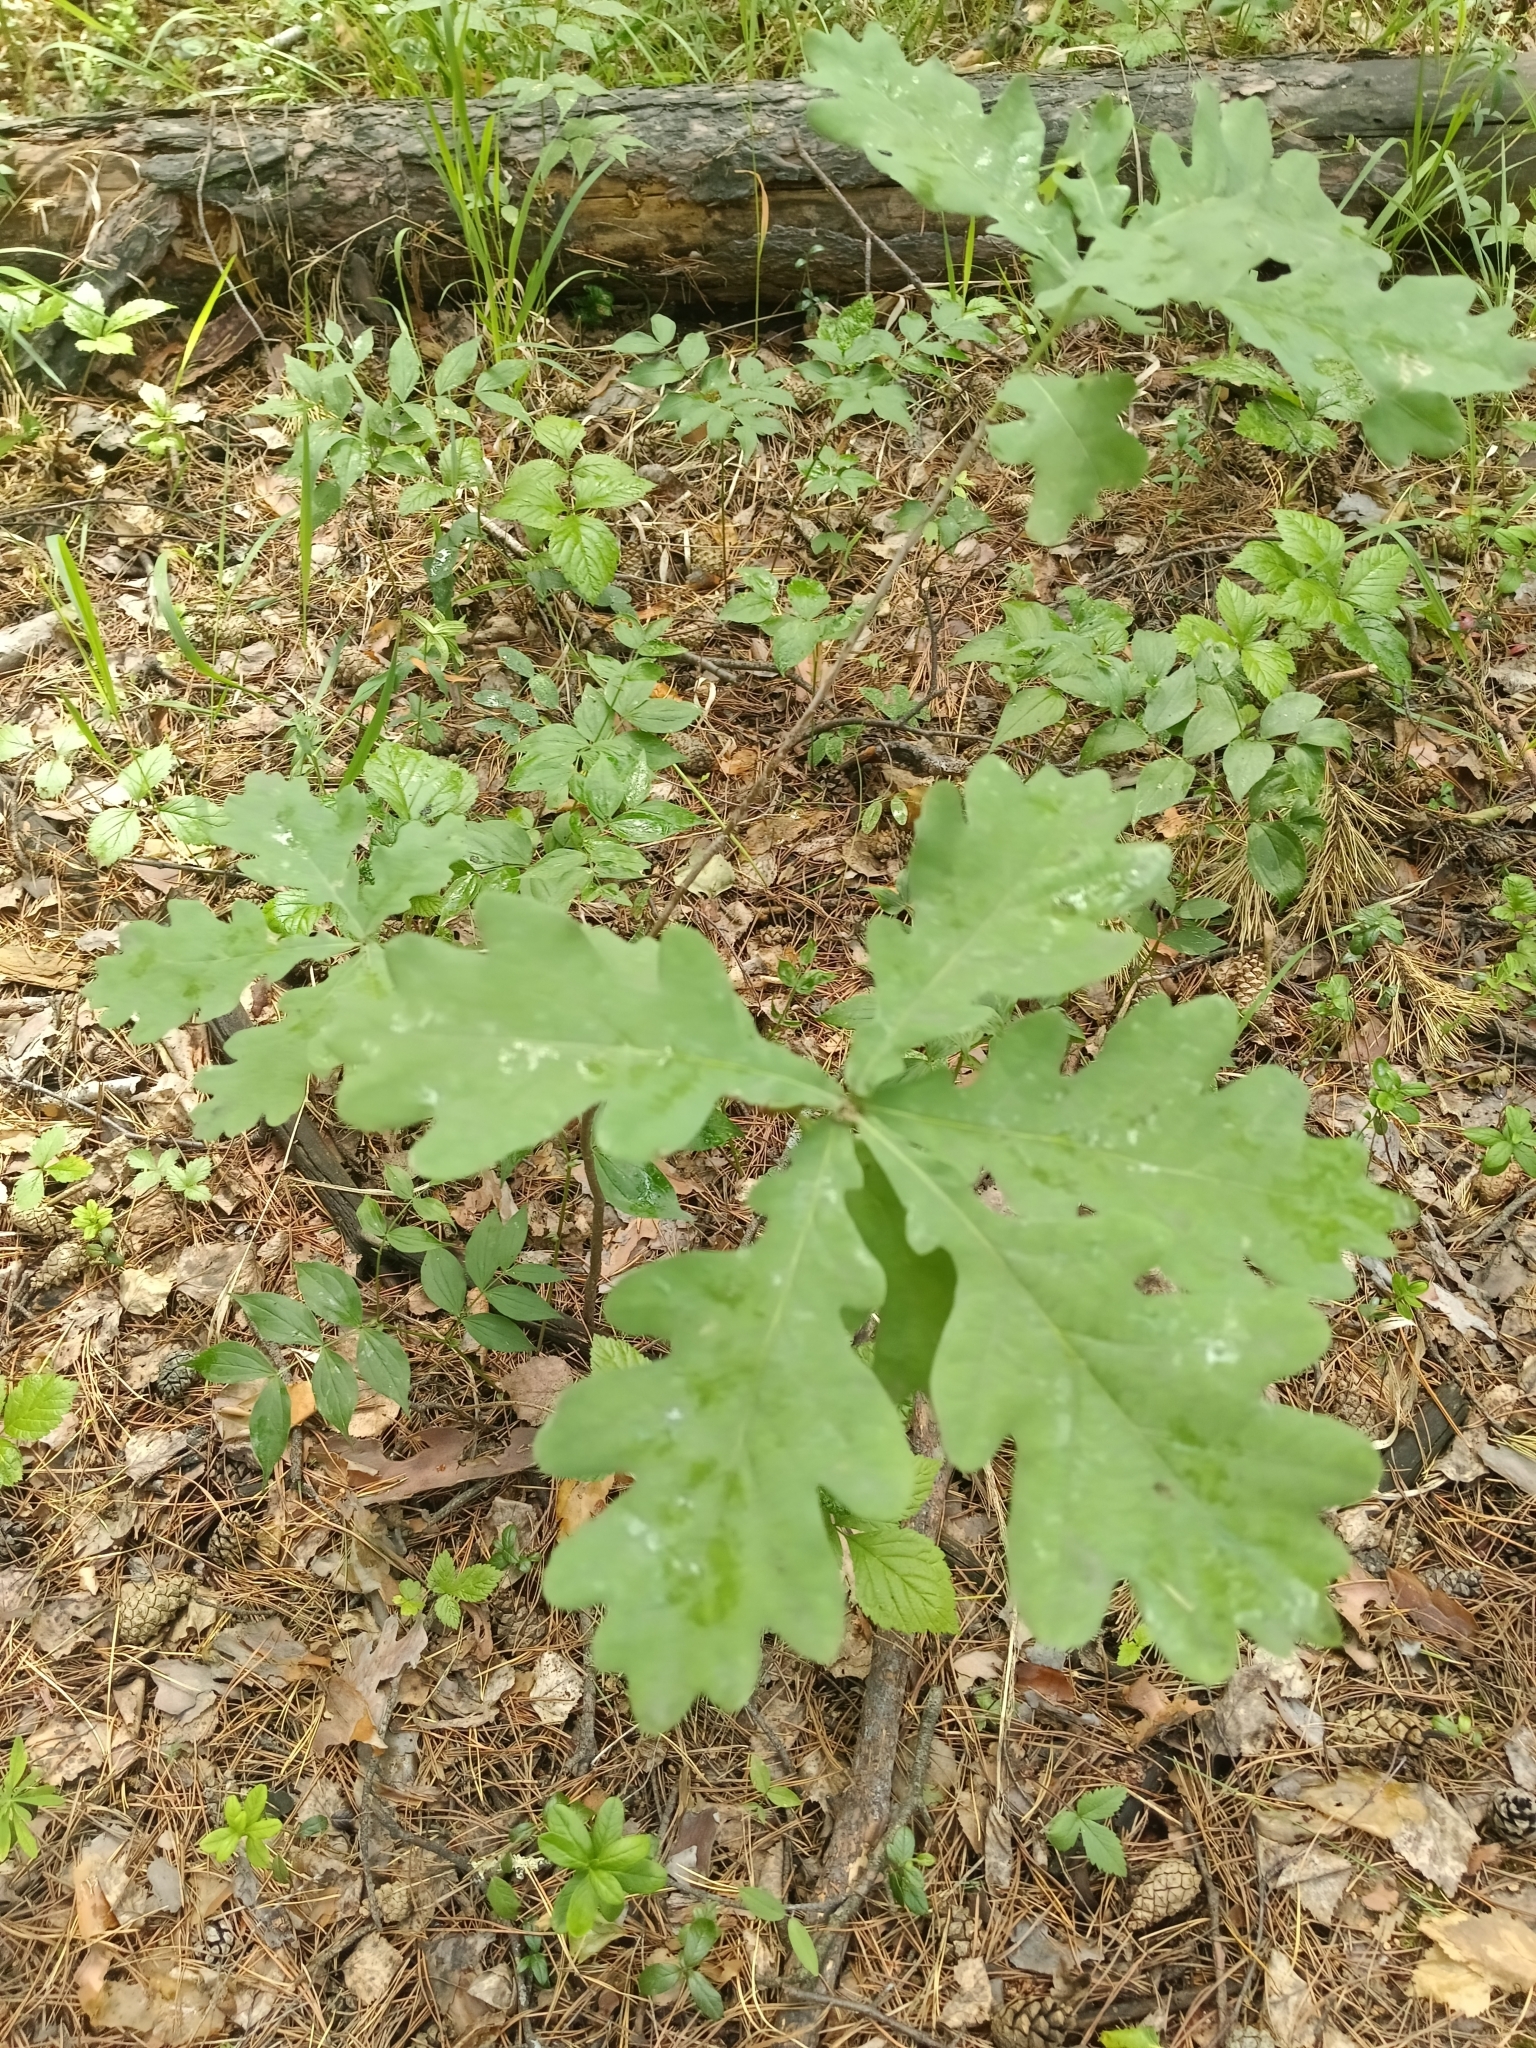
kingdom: Plantae
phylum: Tracheophyta
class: Magnoliopsida
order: Fagales
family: Fagaceae
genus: Quercus
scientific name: Quercus robur
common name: Pedunculate oak
